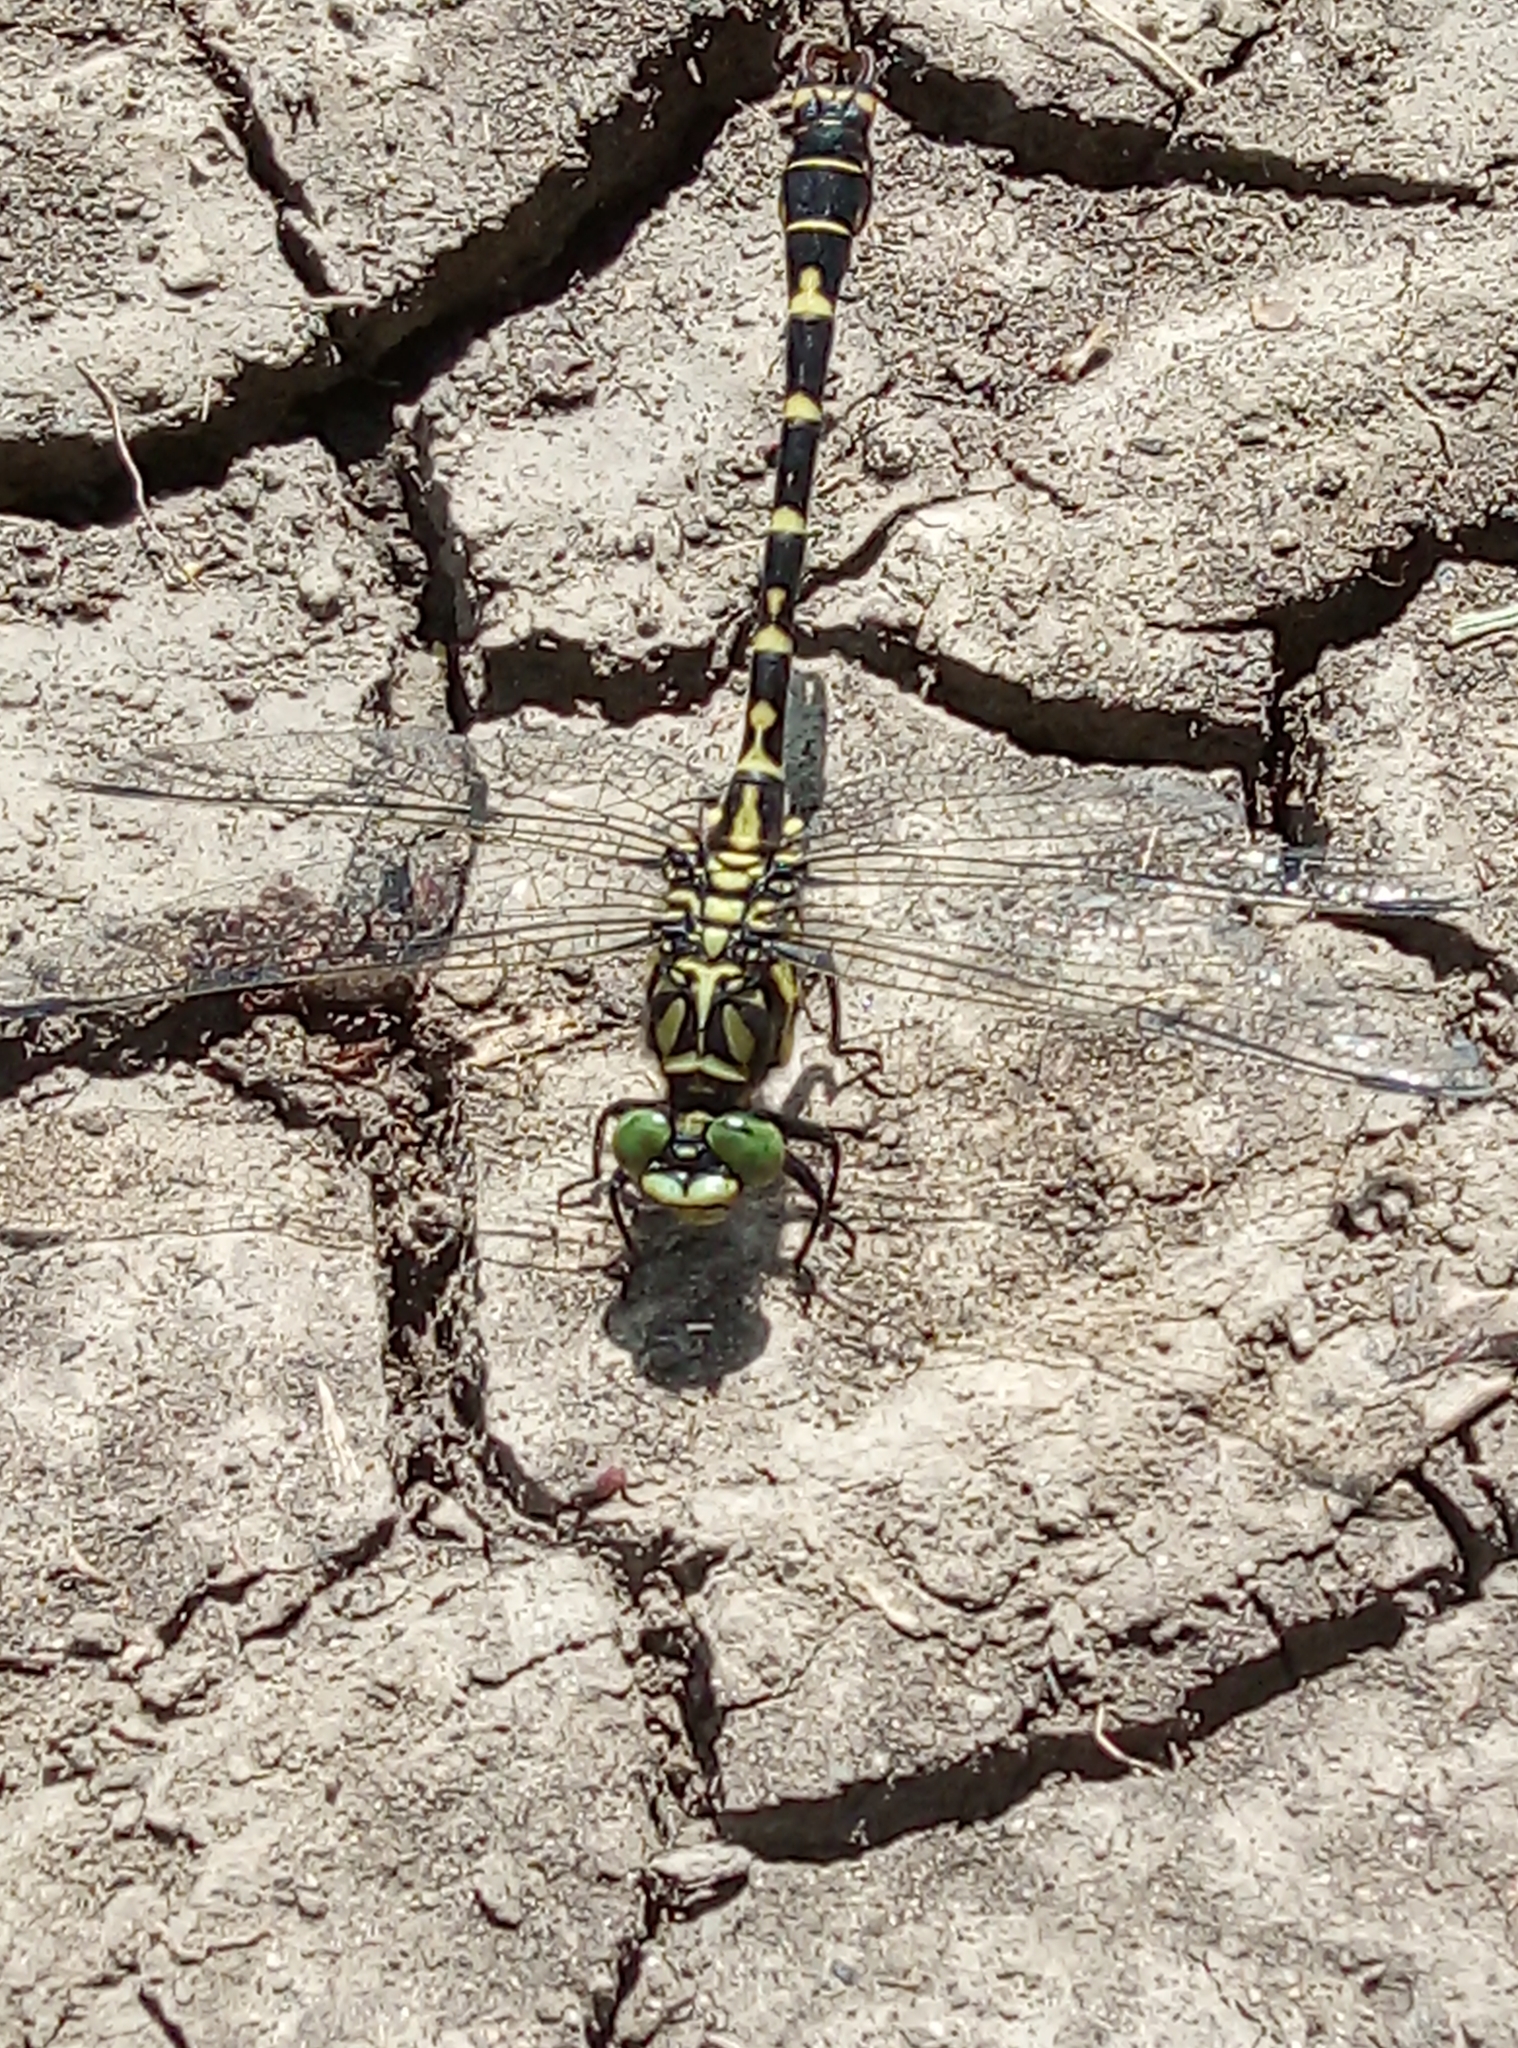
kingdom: Animalia
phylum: Arthropoda
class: Insecta
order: Odonata
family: Gomphidae
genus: Onychogomphus
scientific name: Onychogomphus forcipatus
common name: Small pincertail
